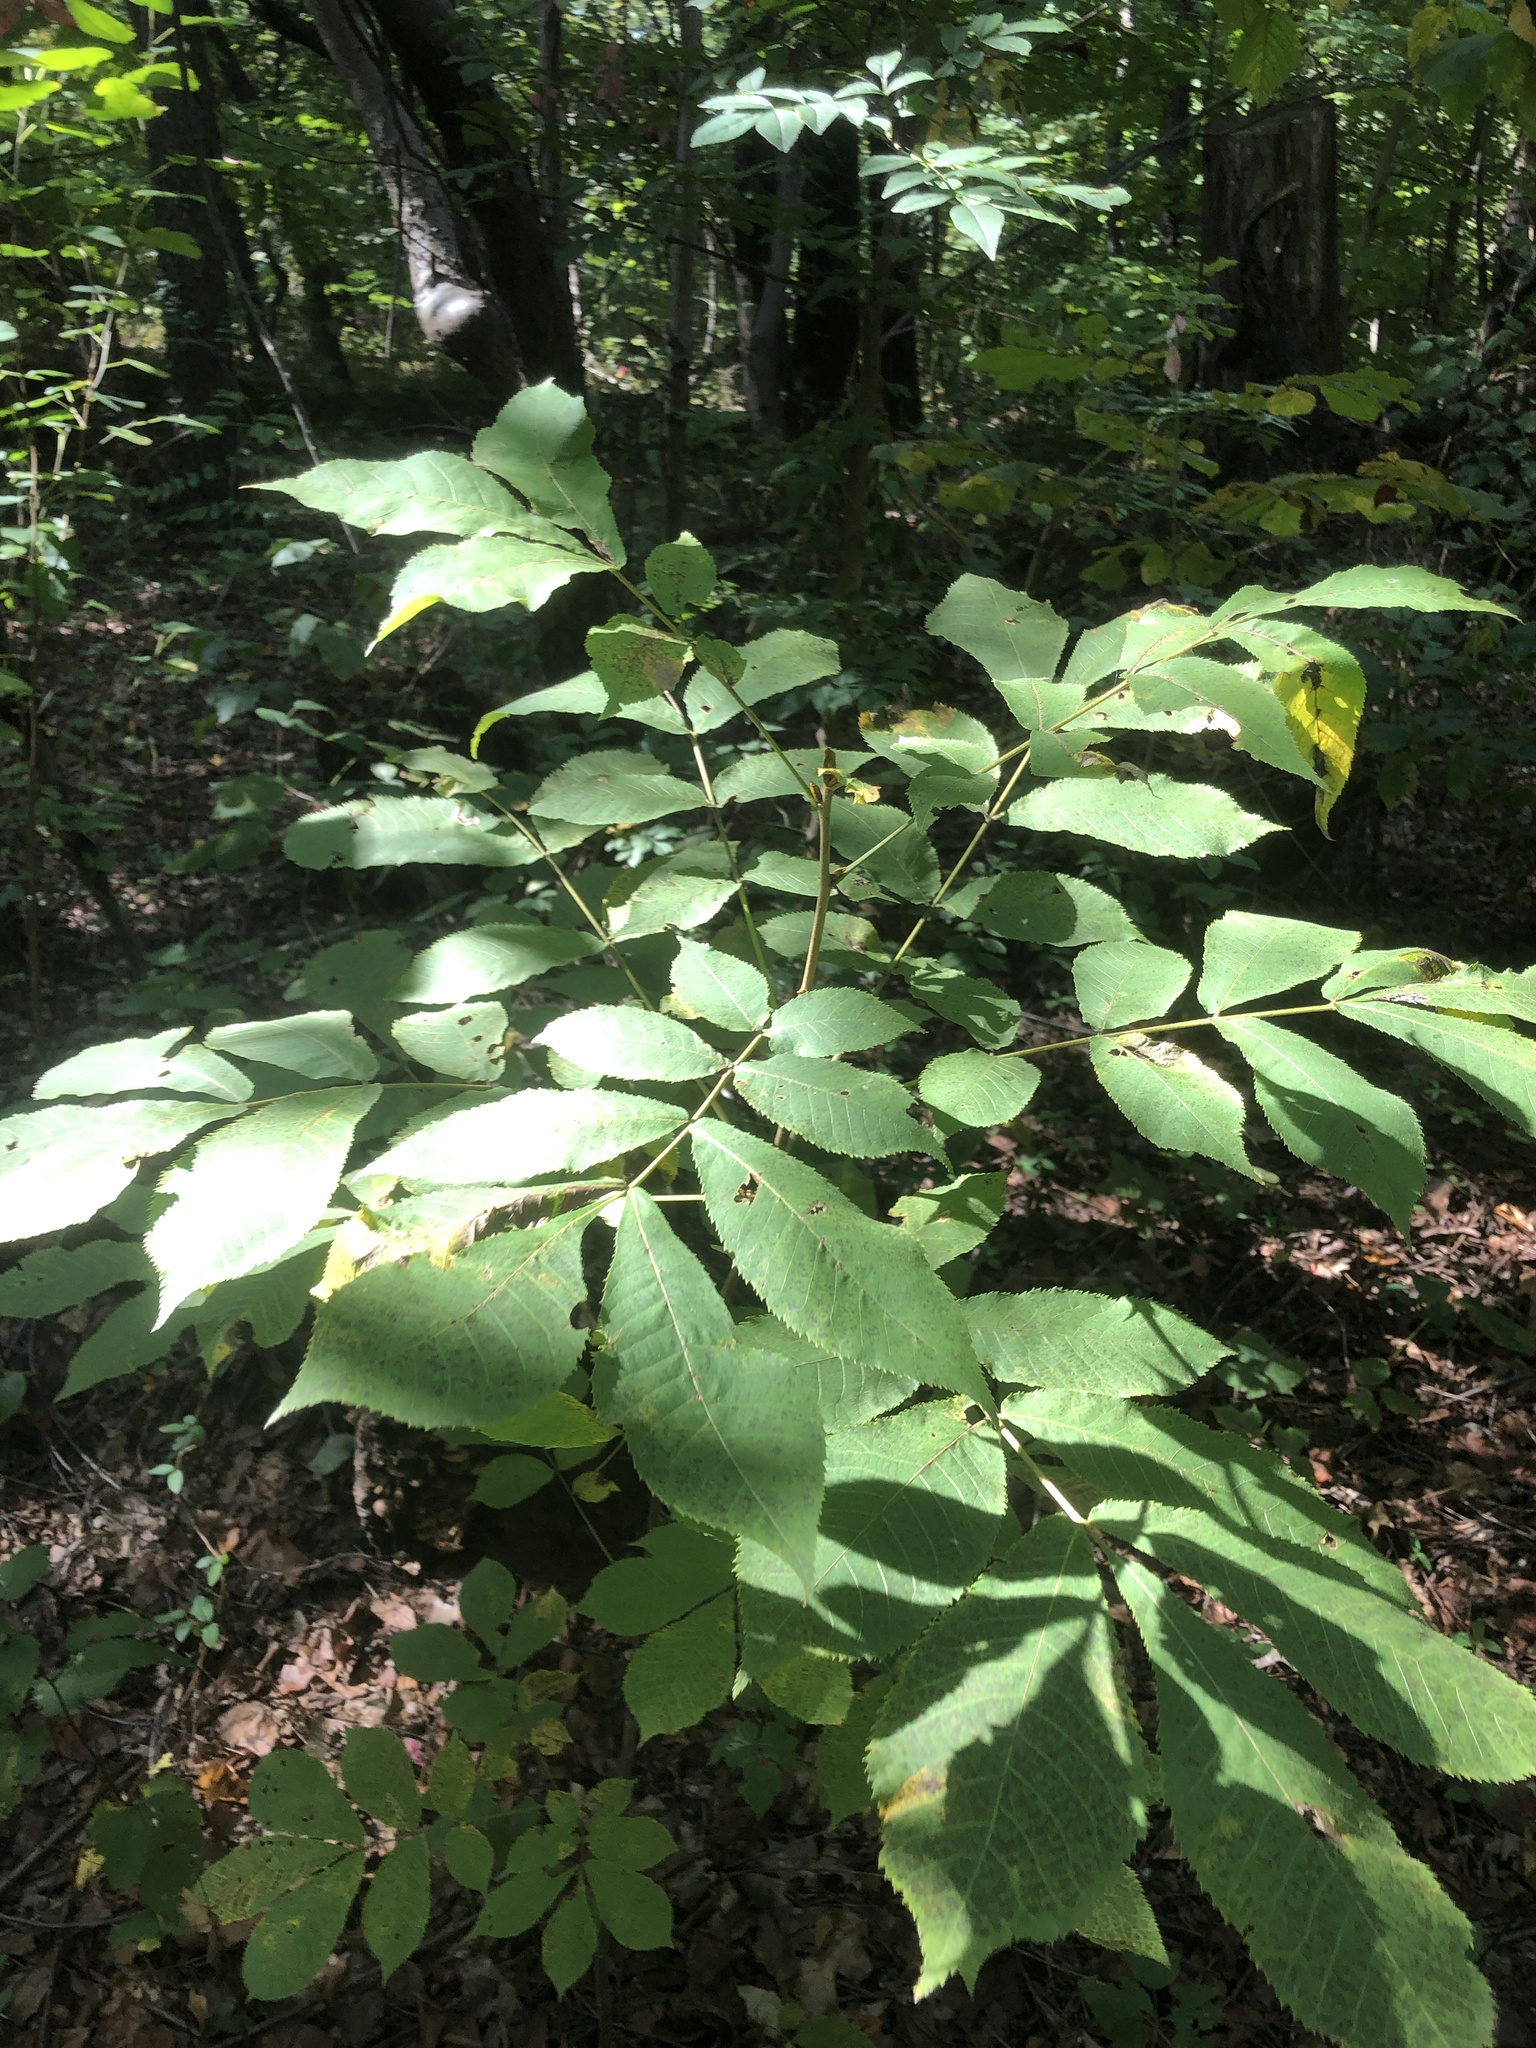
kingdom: Plantae
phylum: Tracheophyta
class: Magnoliopsida
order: Fagales
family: Juglandaceae
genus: Carya
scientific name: Carya cordiformis
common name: Bitternut hickory
